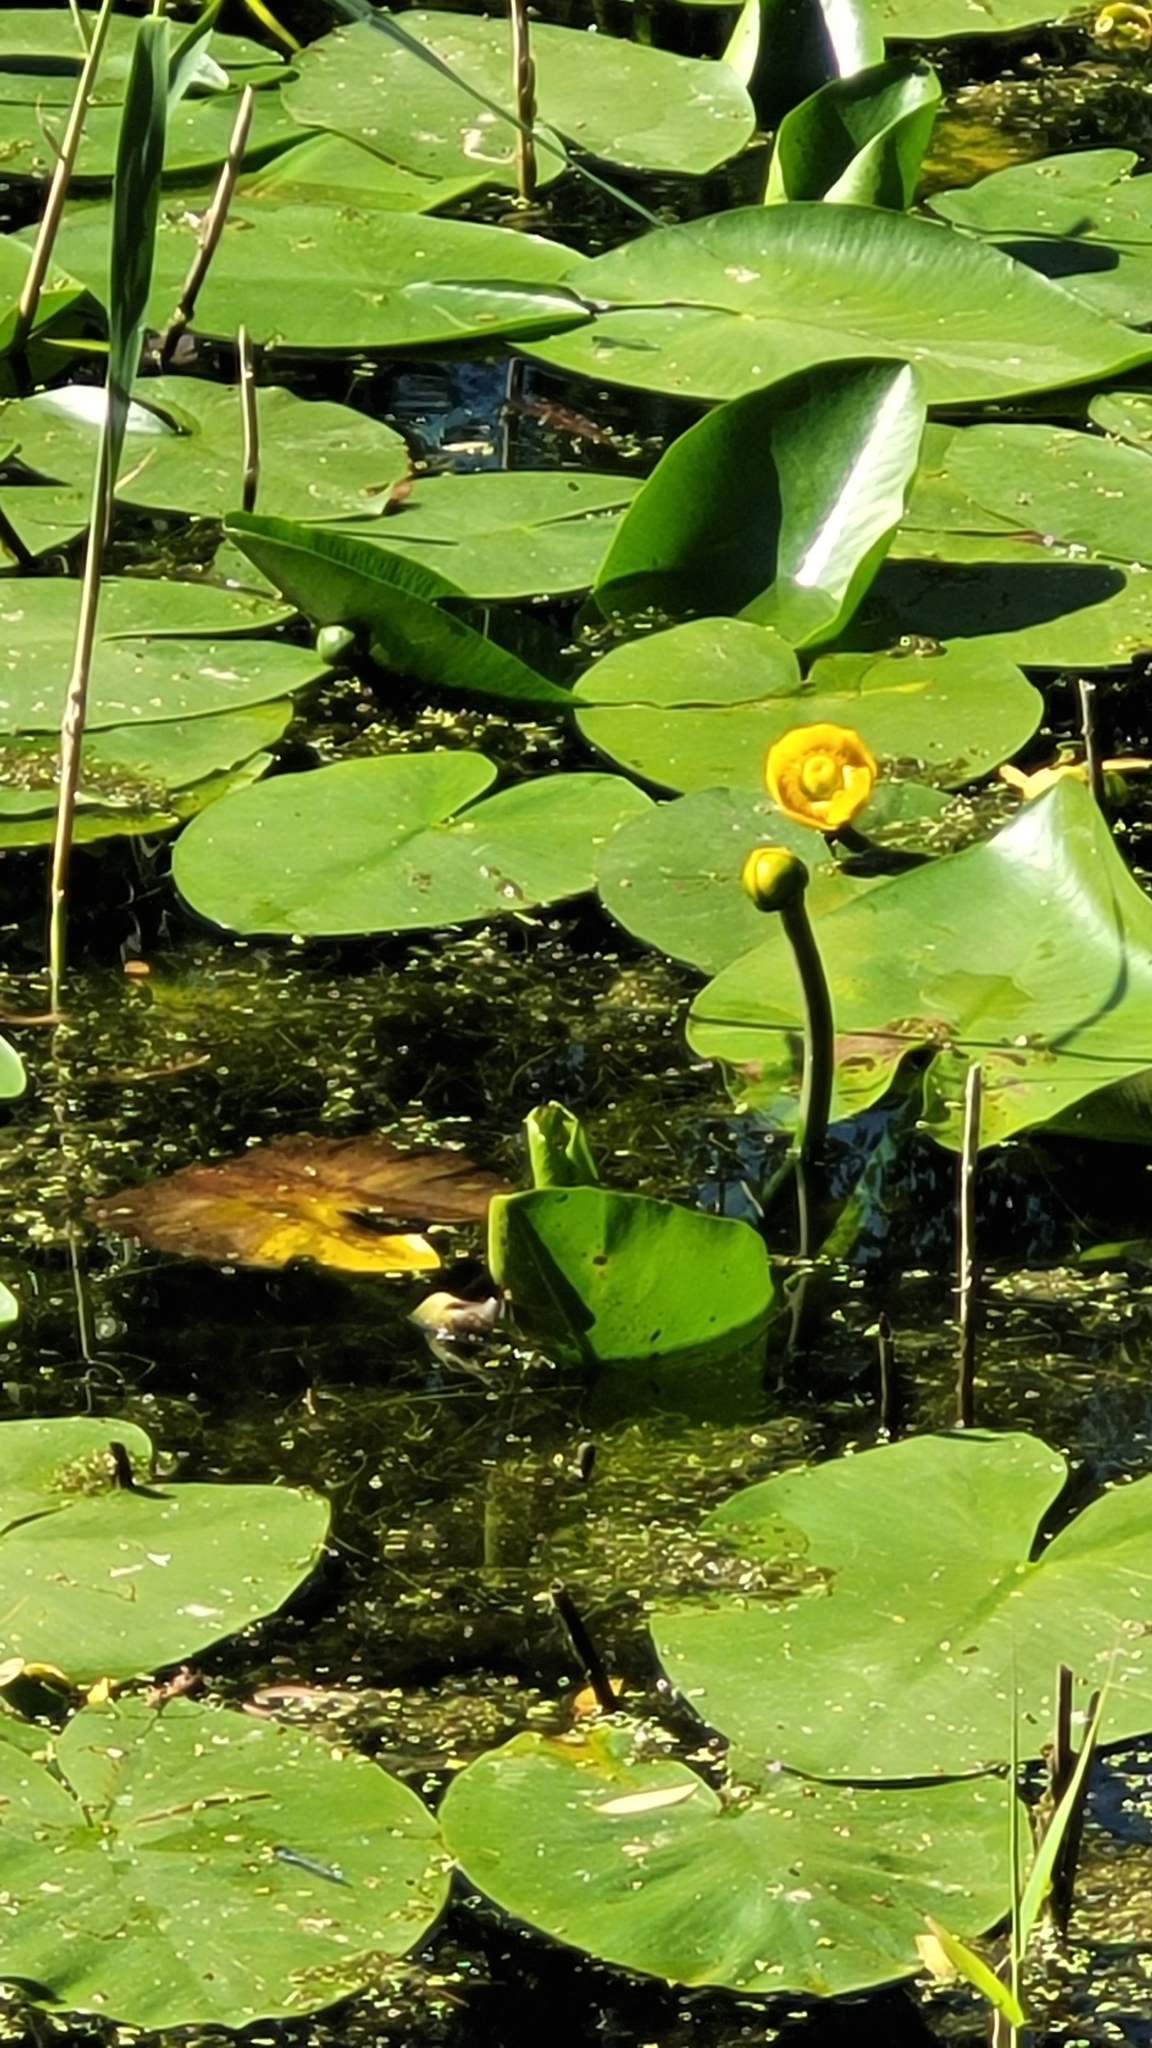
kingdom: Plantae
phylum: Tracheophyta
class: Magnoliopsida
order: Nymphaeales
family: Nymphaeaceae
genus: Nuphar
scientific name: Nuphar lutea
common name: Yellow water-lily
